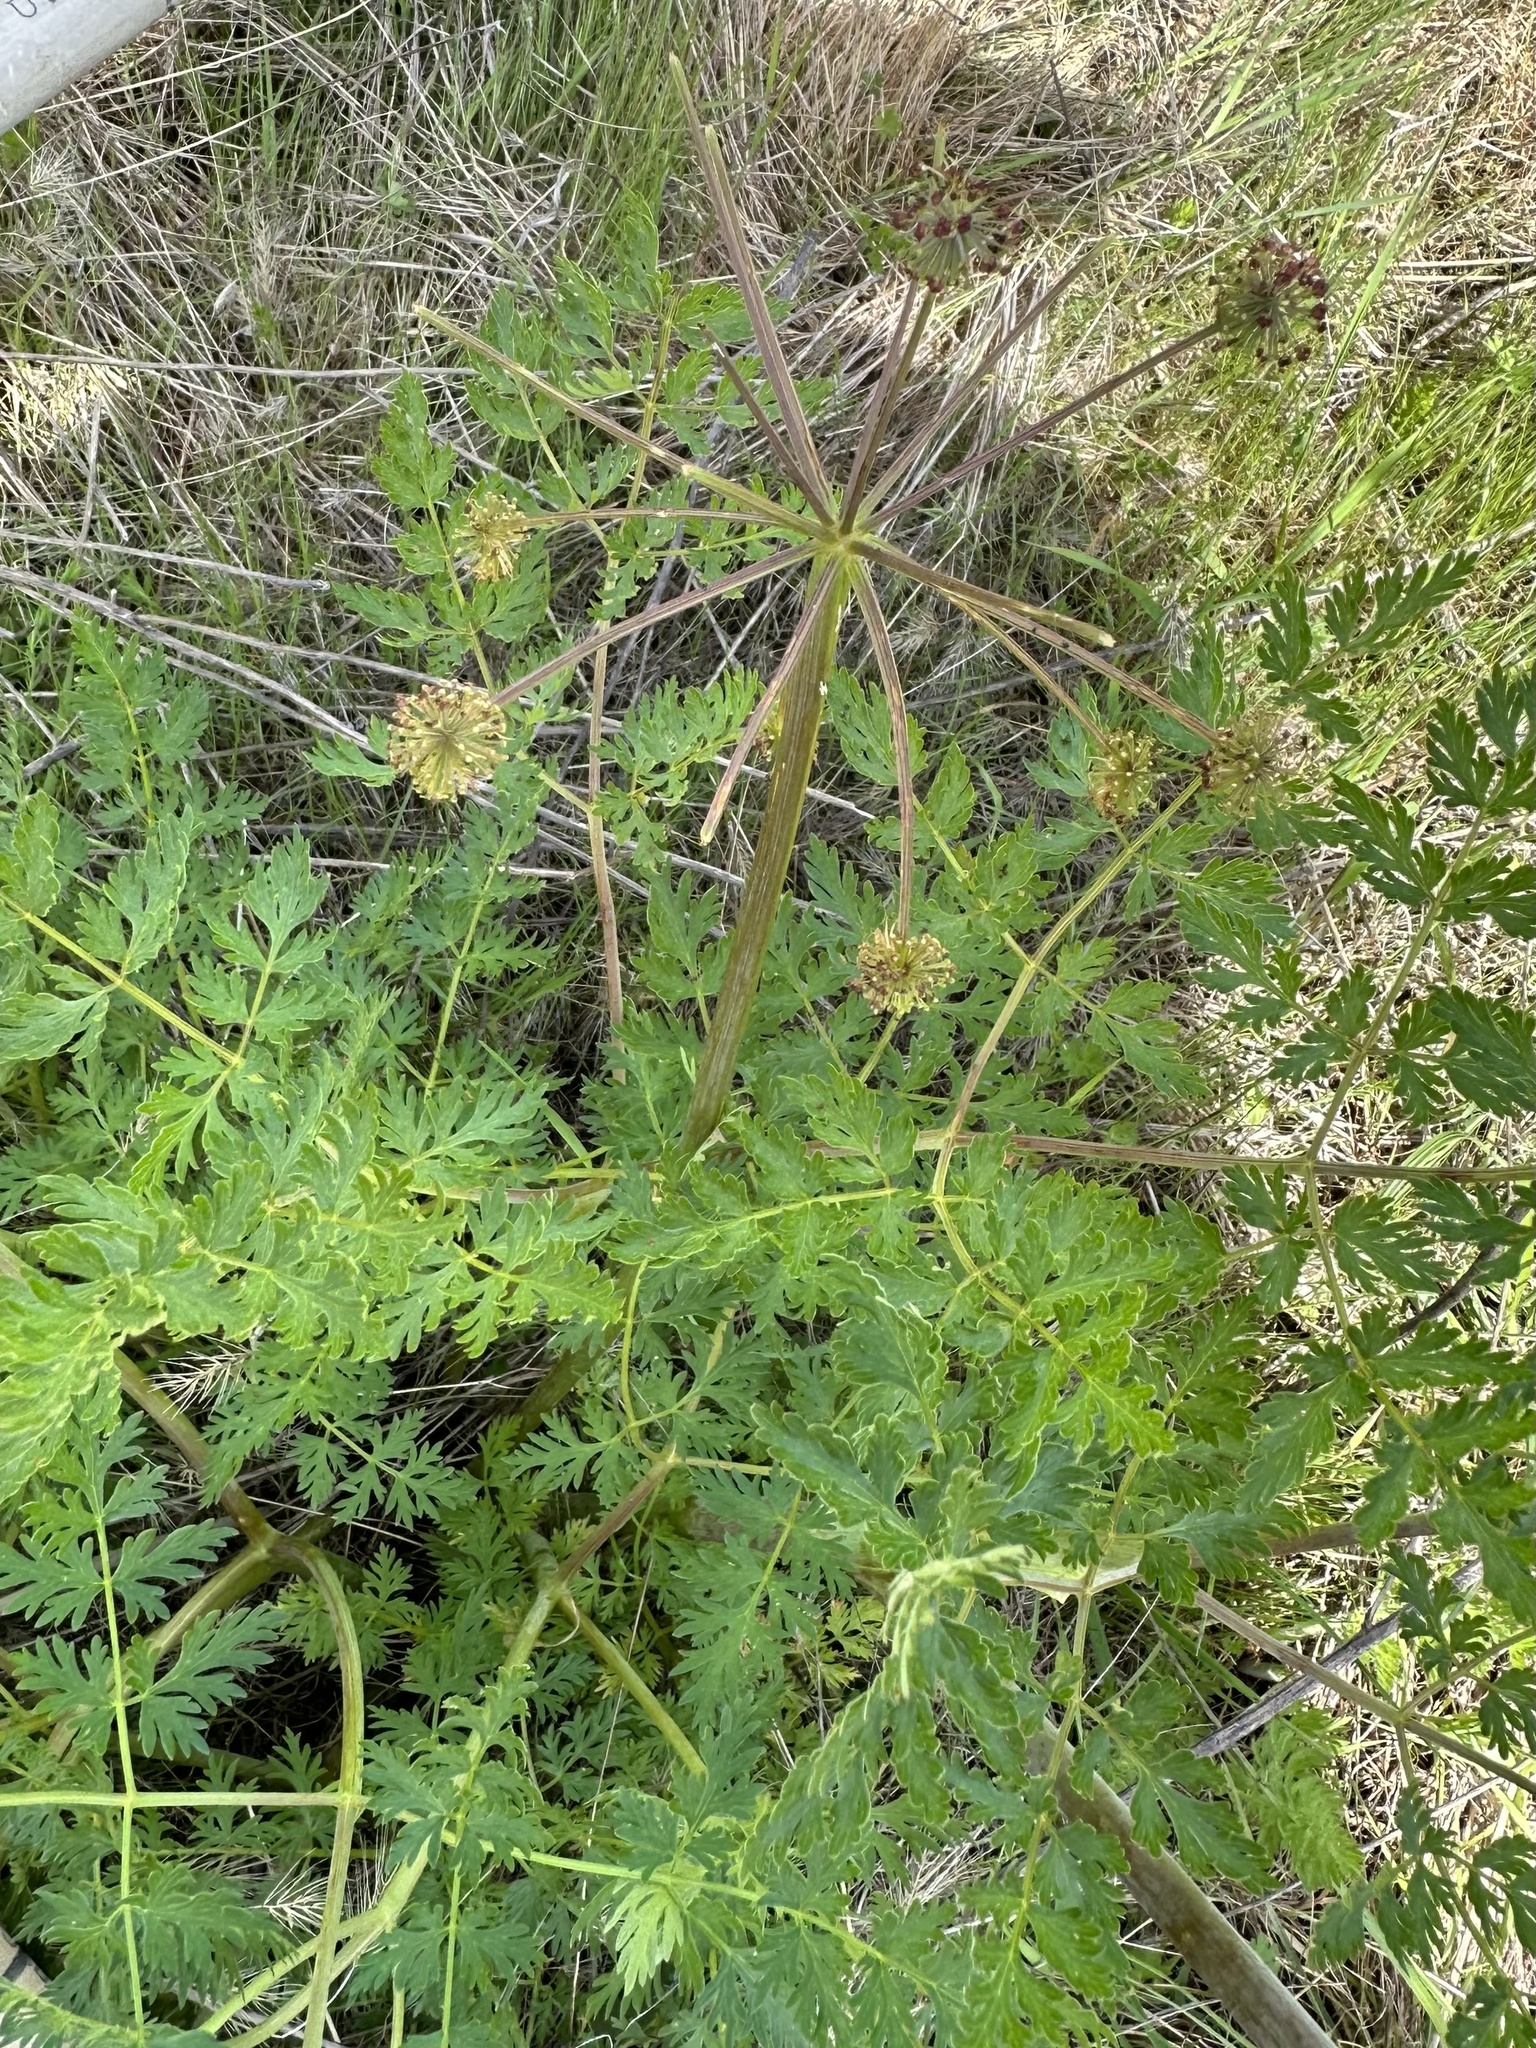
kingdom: Plantae
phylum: Tracheophyta
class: Magnoliopsida
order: Apiales
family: Apiaceae
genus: Lomatium
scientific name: Lomatium dissectum
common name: Lomatium
